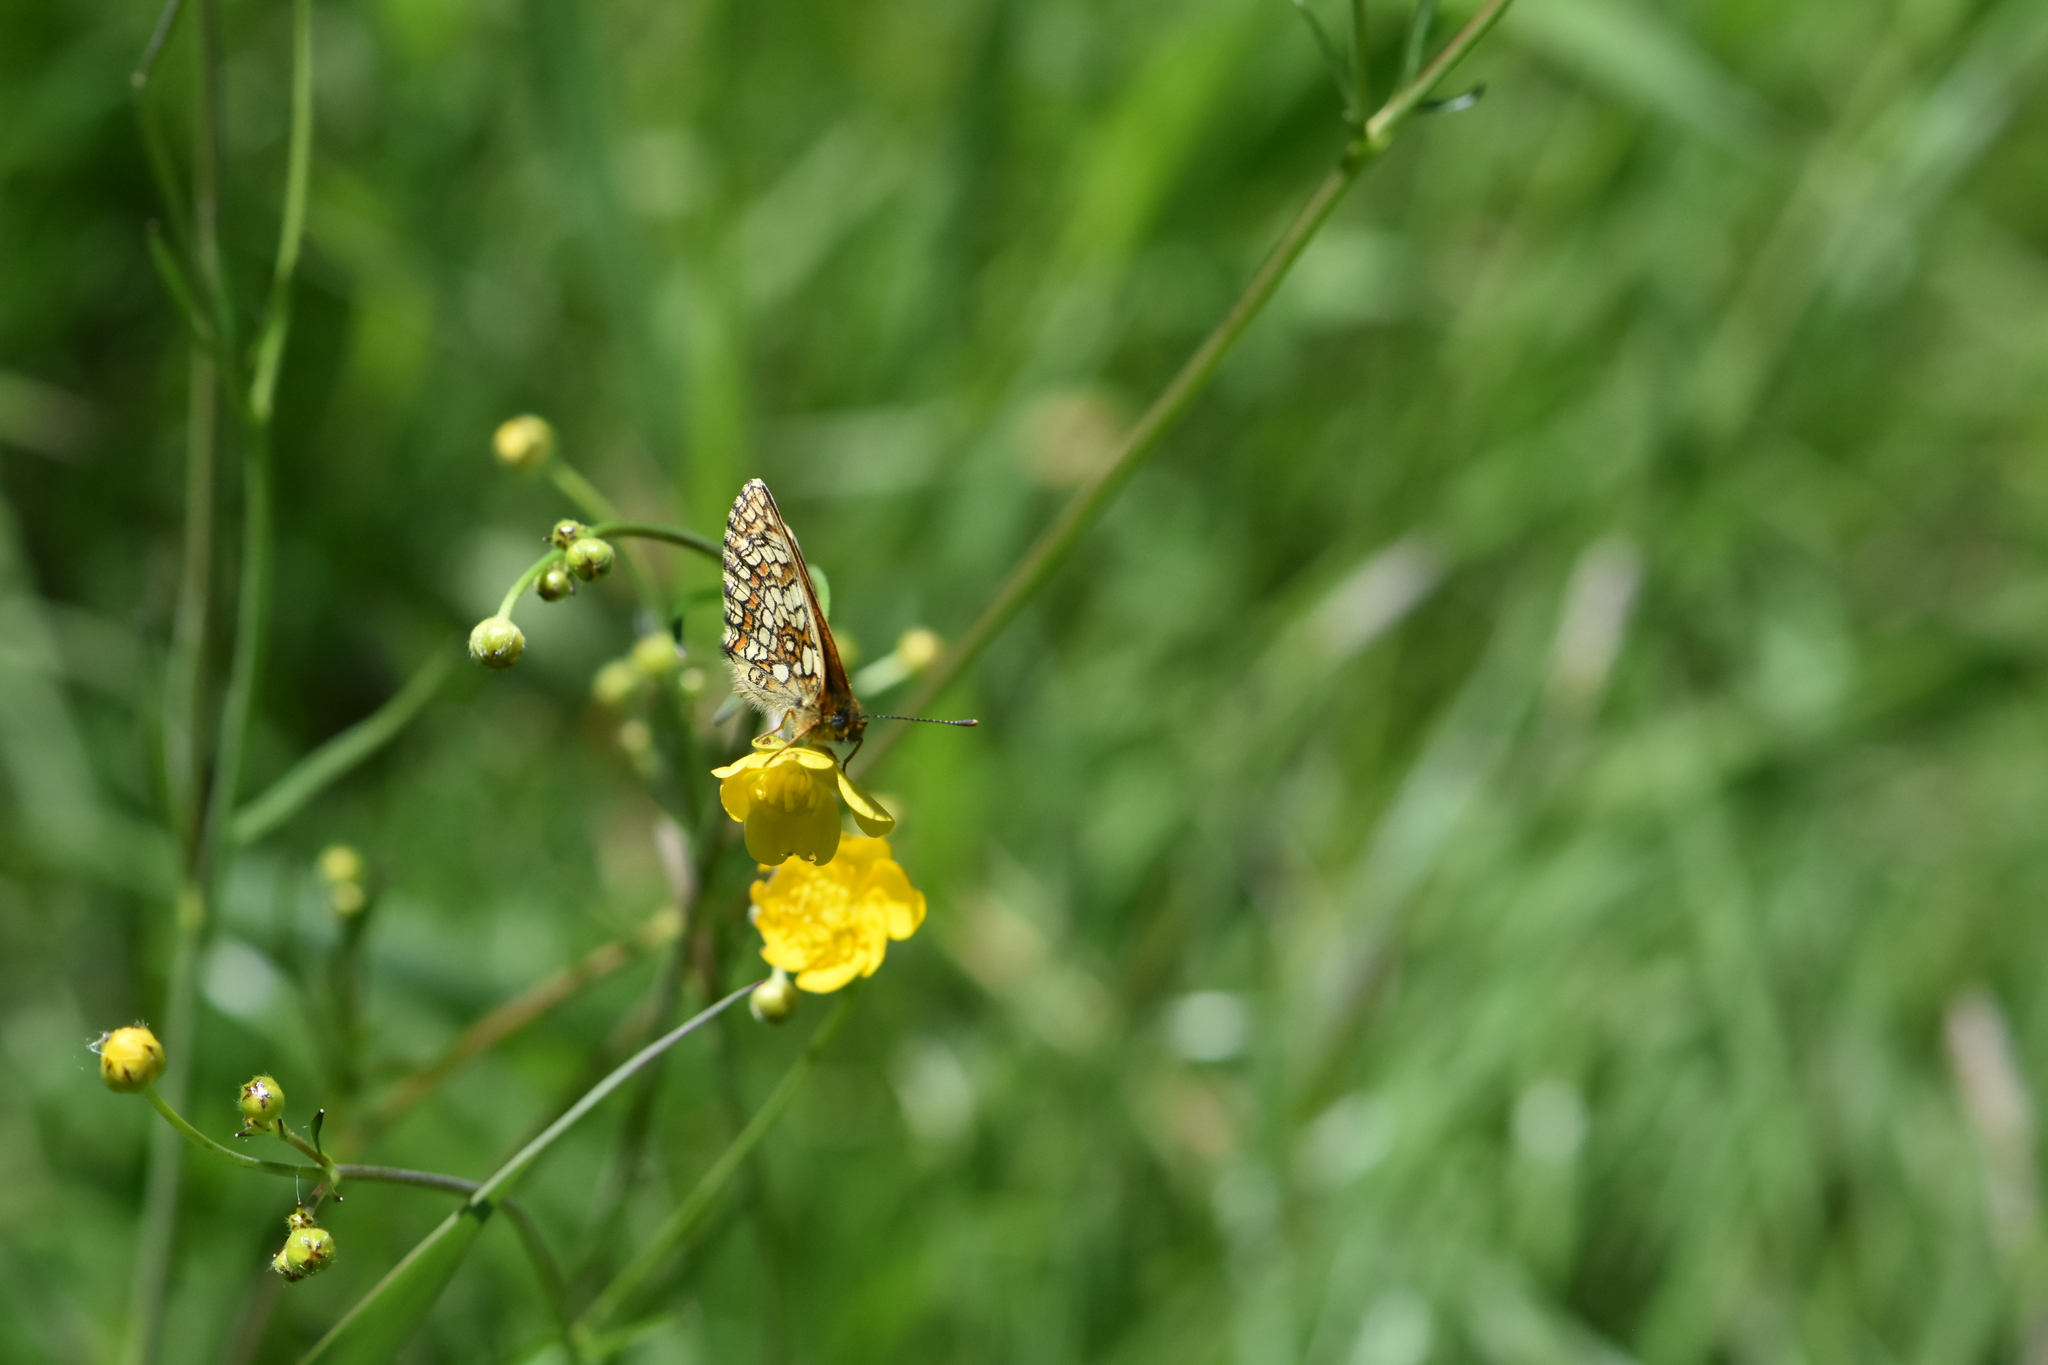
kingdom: Animalia
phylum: Arthropoda
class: Insecta
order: Lepidoptera
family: Nymphalidae
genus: Melitaea
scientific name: Melitaea athalia
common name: Heath fritillary
